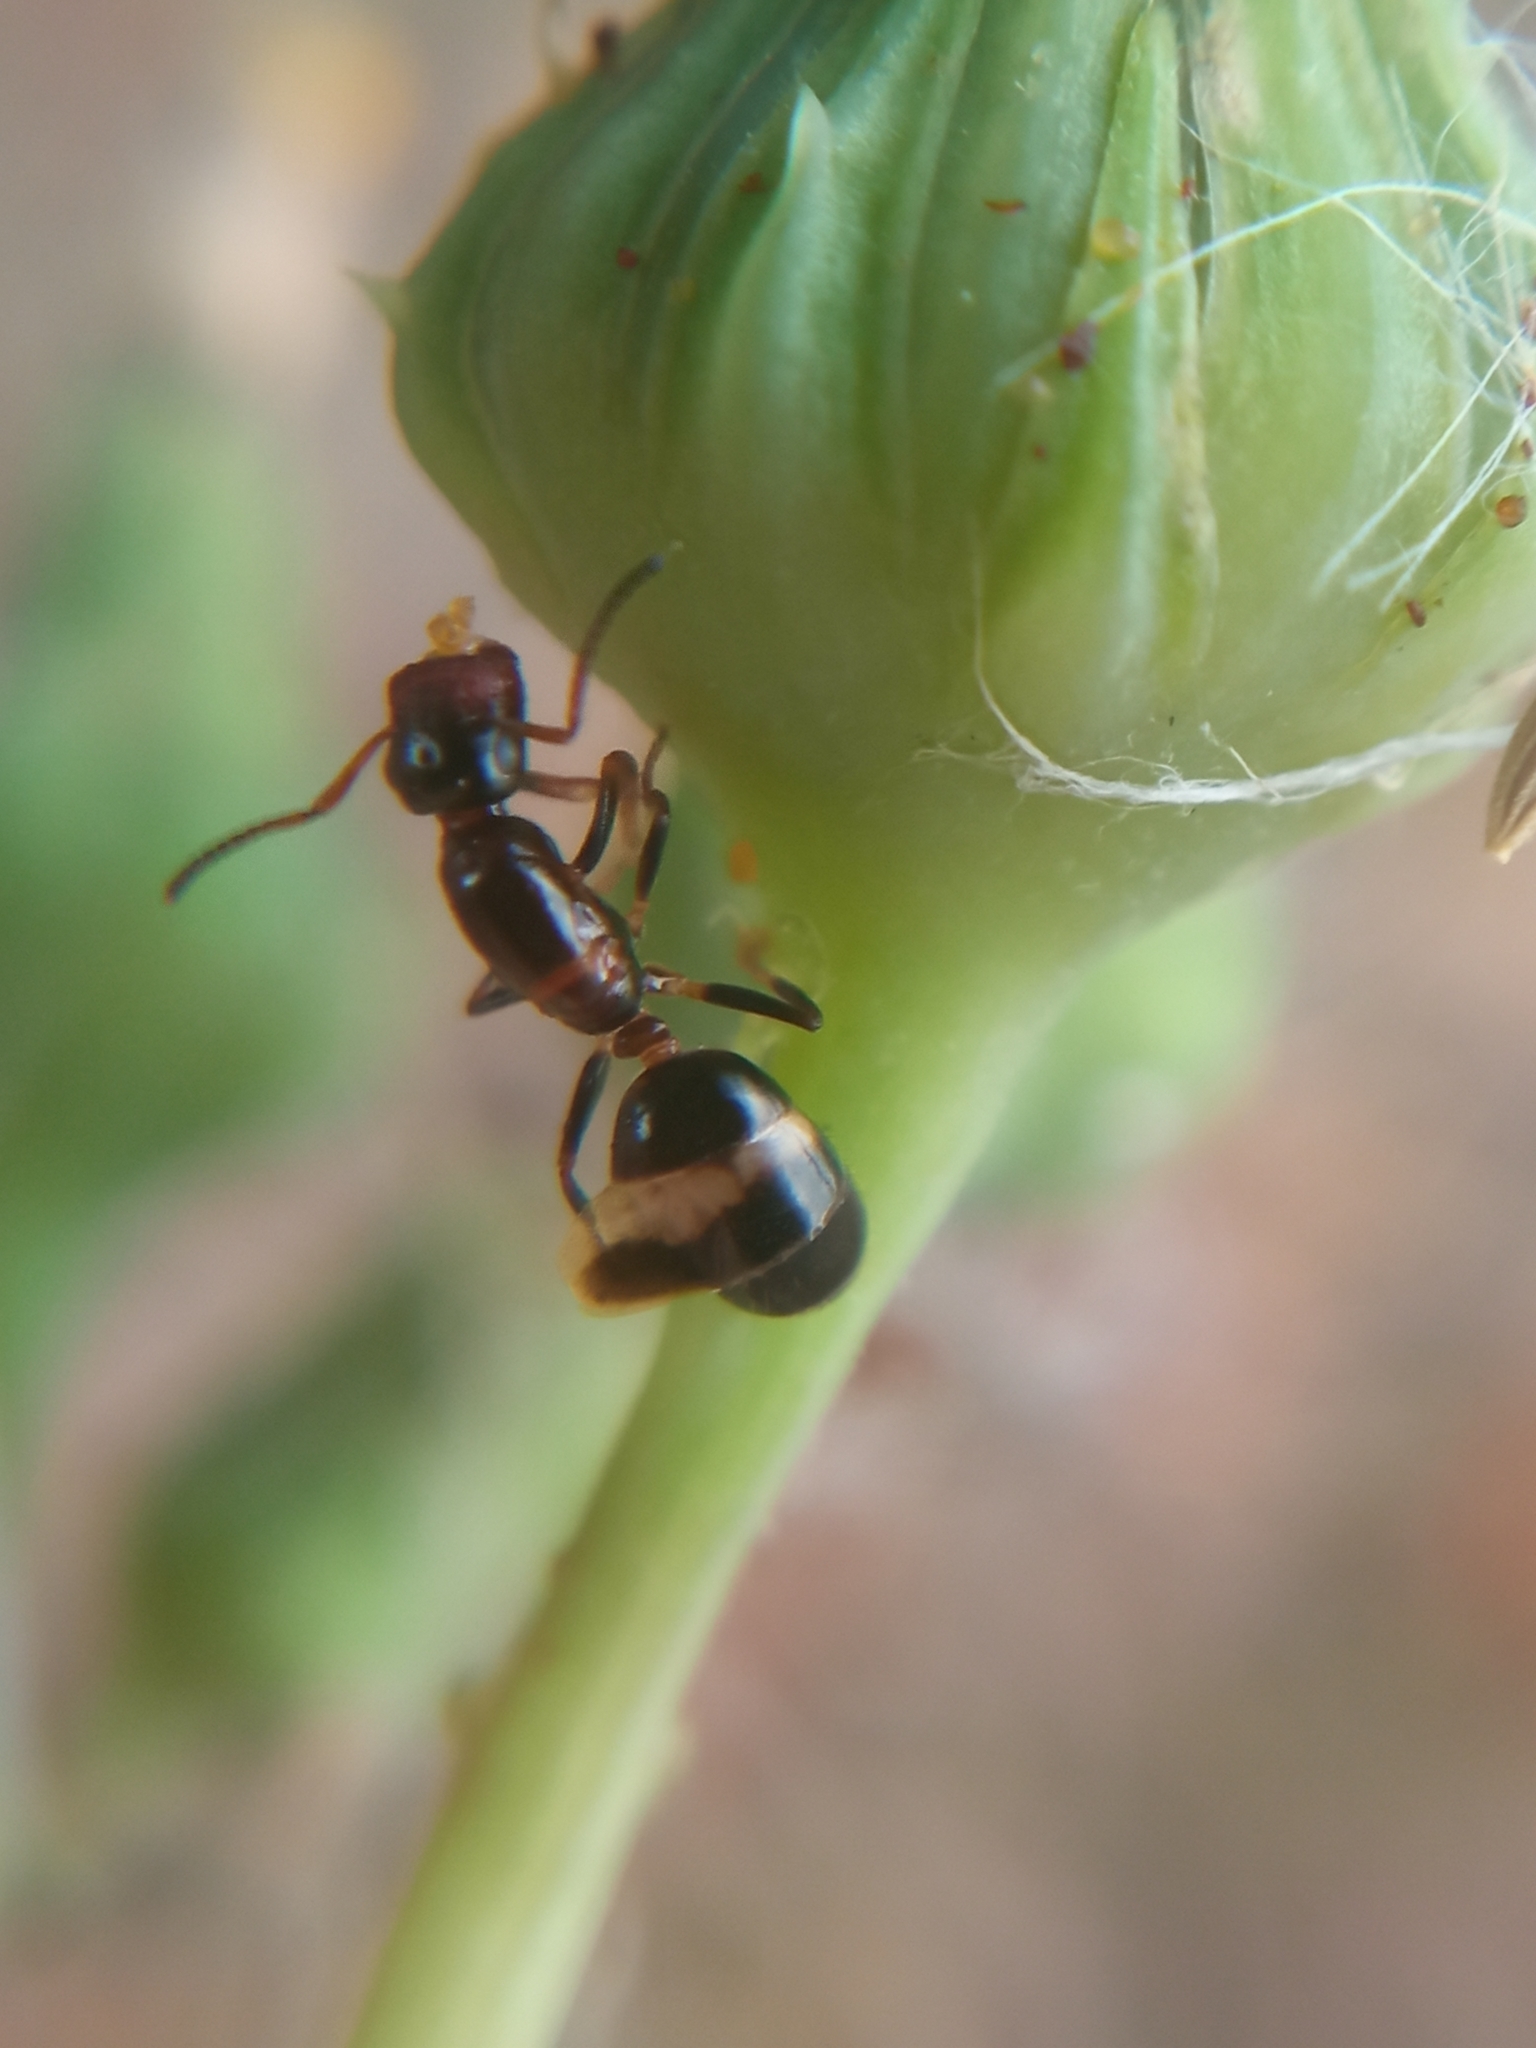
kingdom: Animalia
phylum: Arthropoda
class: Insecta
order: Hymenoptera
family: Formicidae
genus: Camponotus
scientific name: Camponotus truncatus
